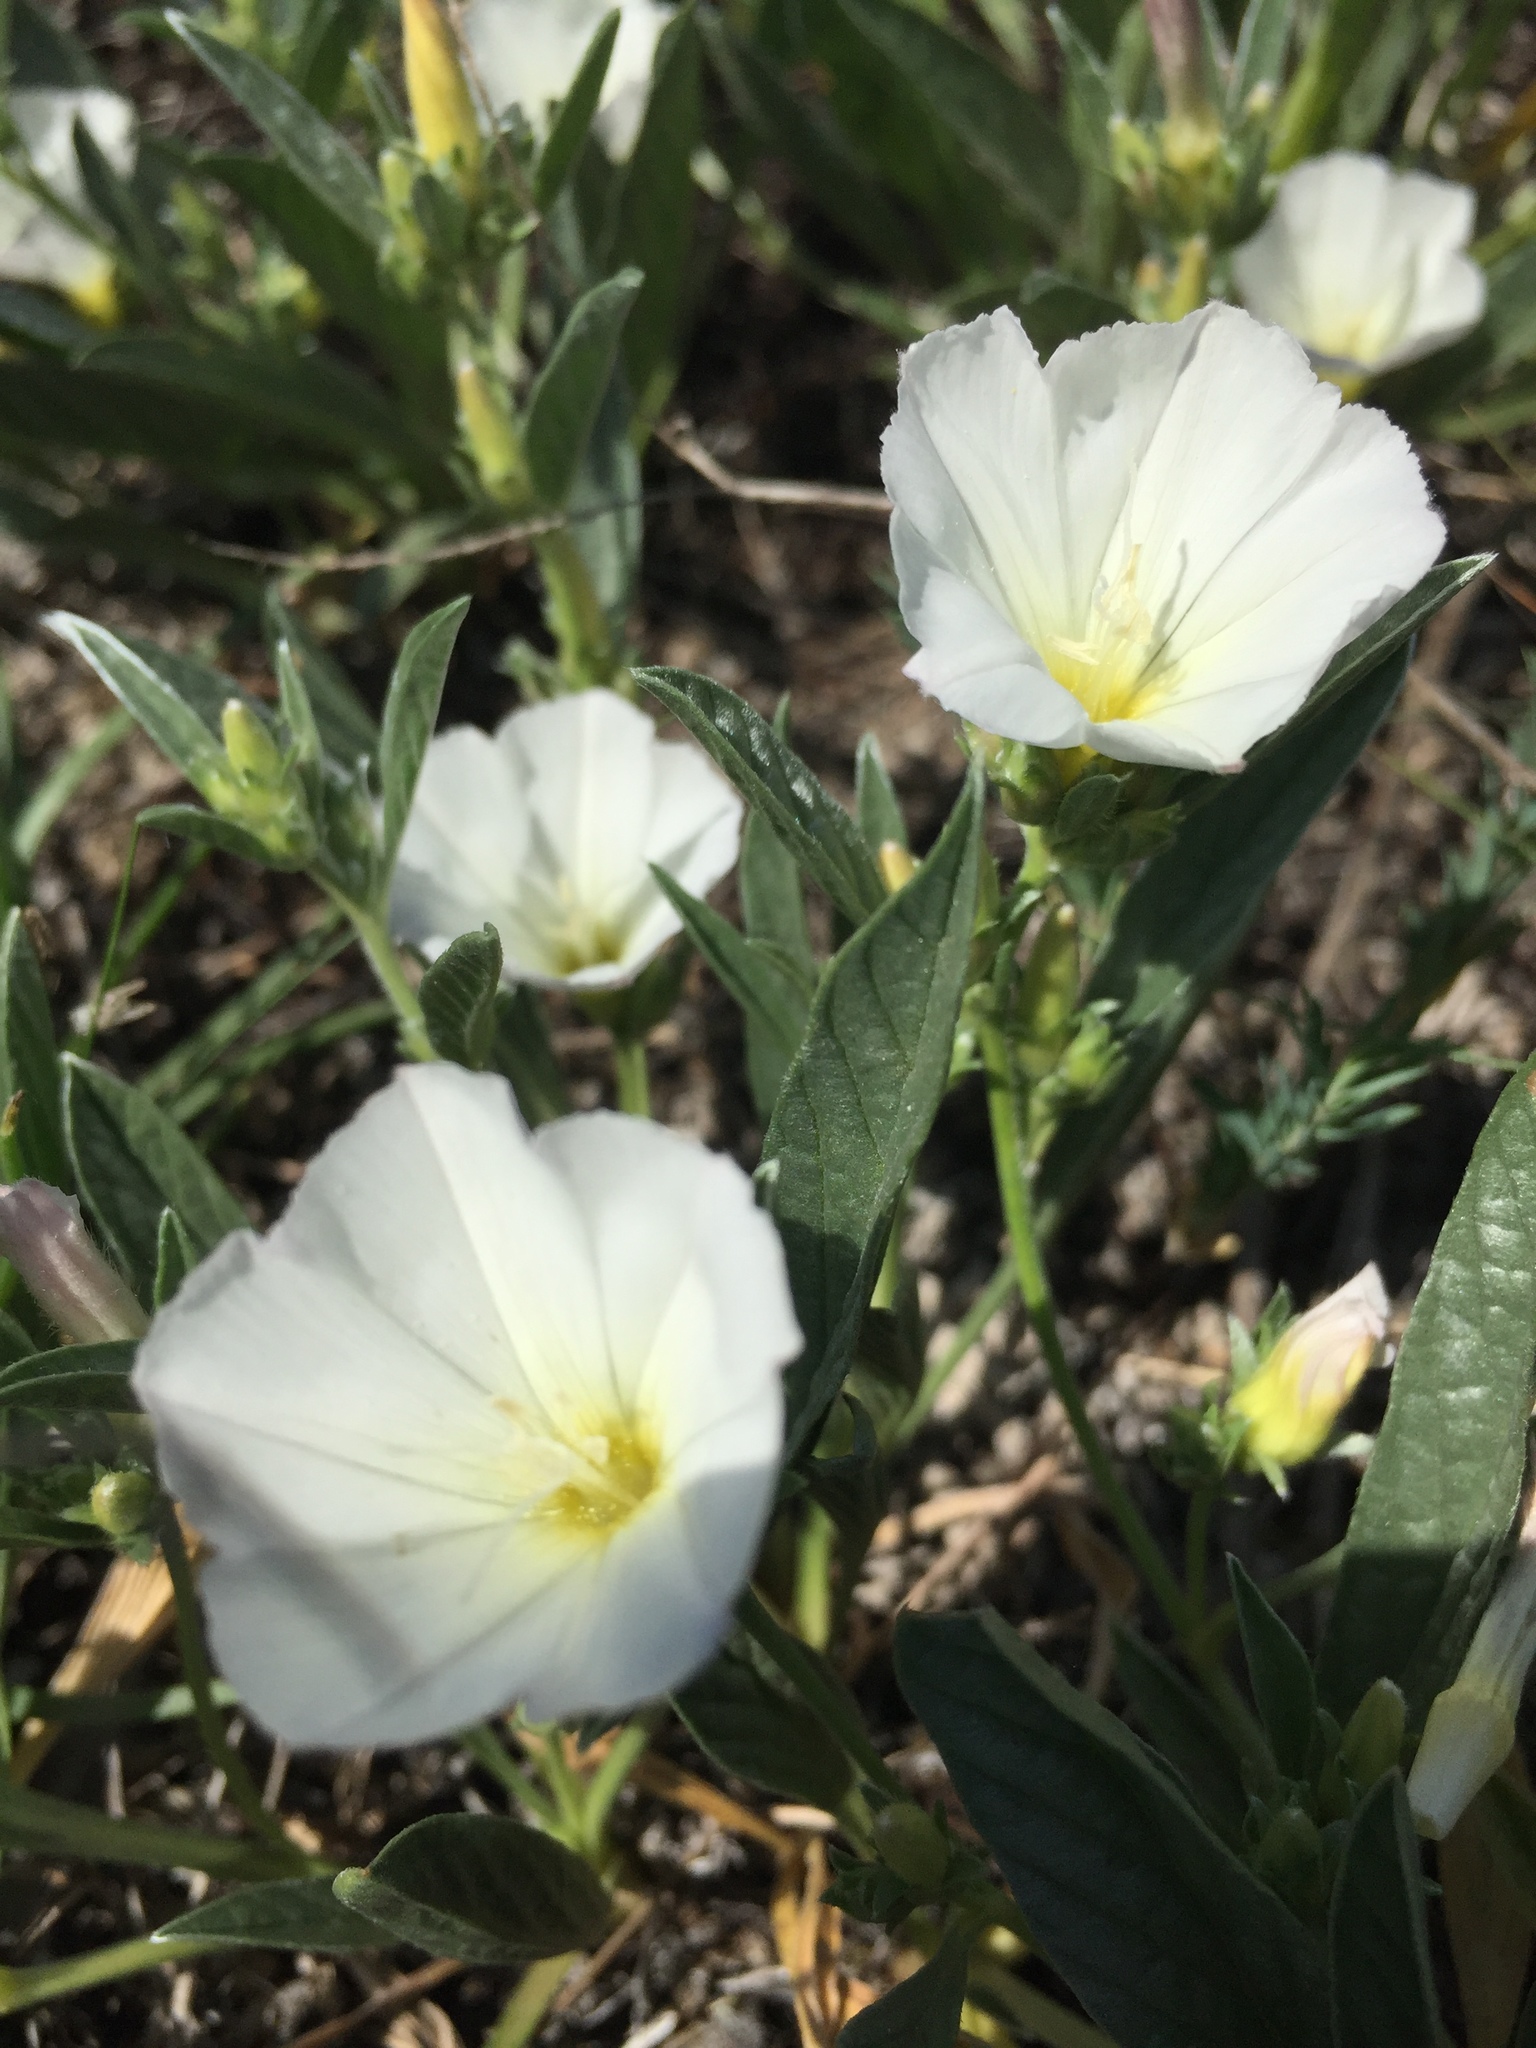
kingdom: Plantae
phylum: Tracheophyta
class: Magnoliopsida
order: Solanales
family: Convolvulaceae
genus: Convolvulus
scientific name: Convolvulus lineatus
